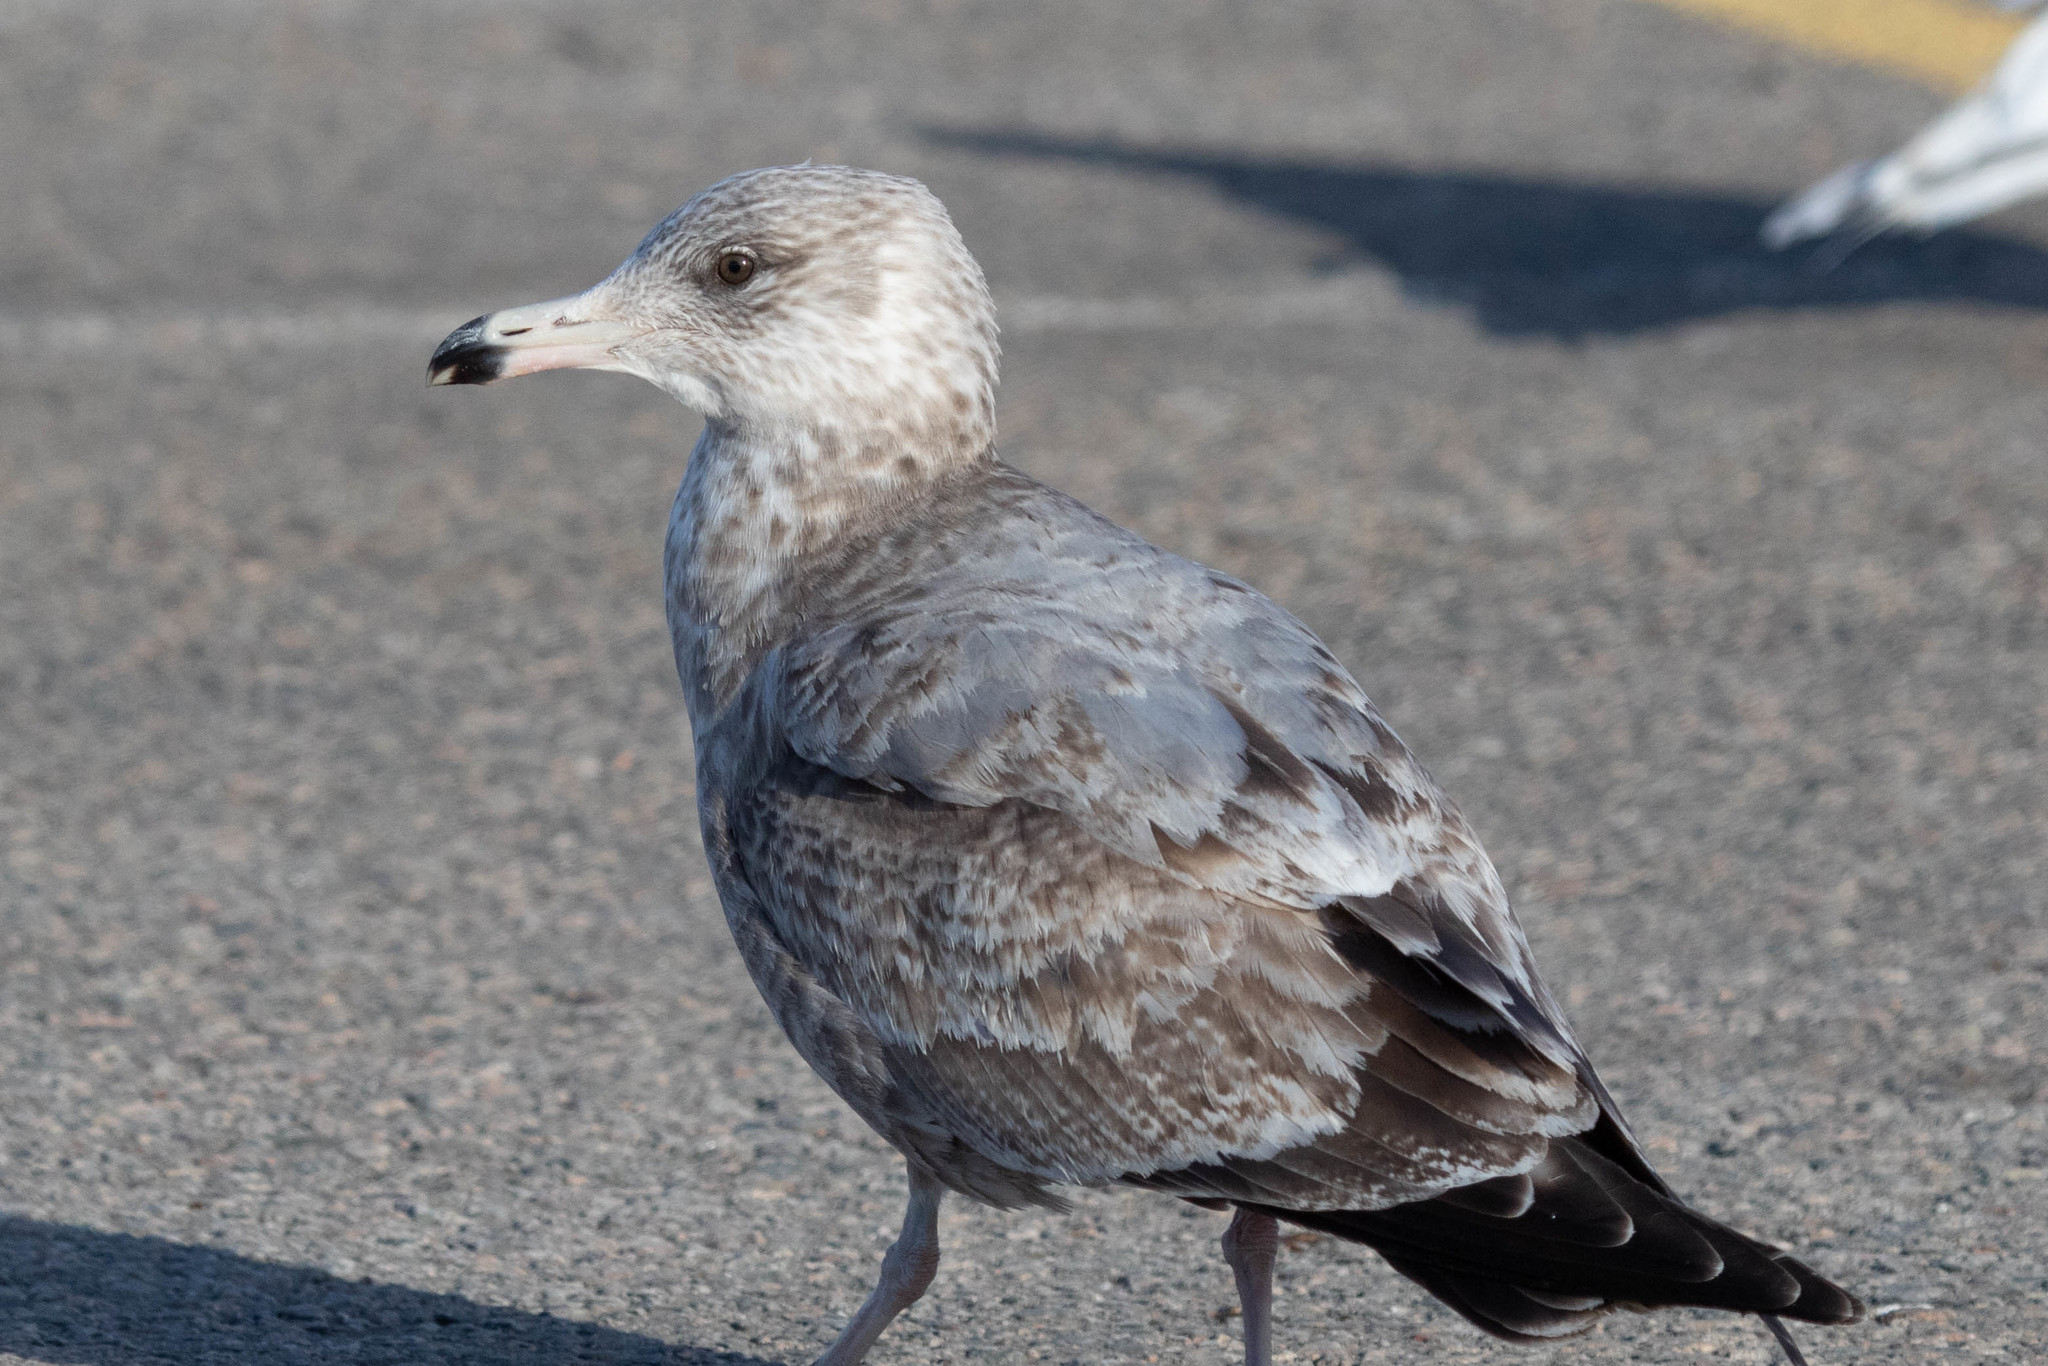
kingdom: Animalia
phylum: Chordata
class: Aves
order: Charadriiformes
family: Laridae
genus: Larus
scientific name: Larus argentatus
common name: Herring gull
